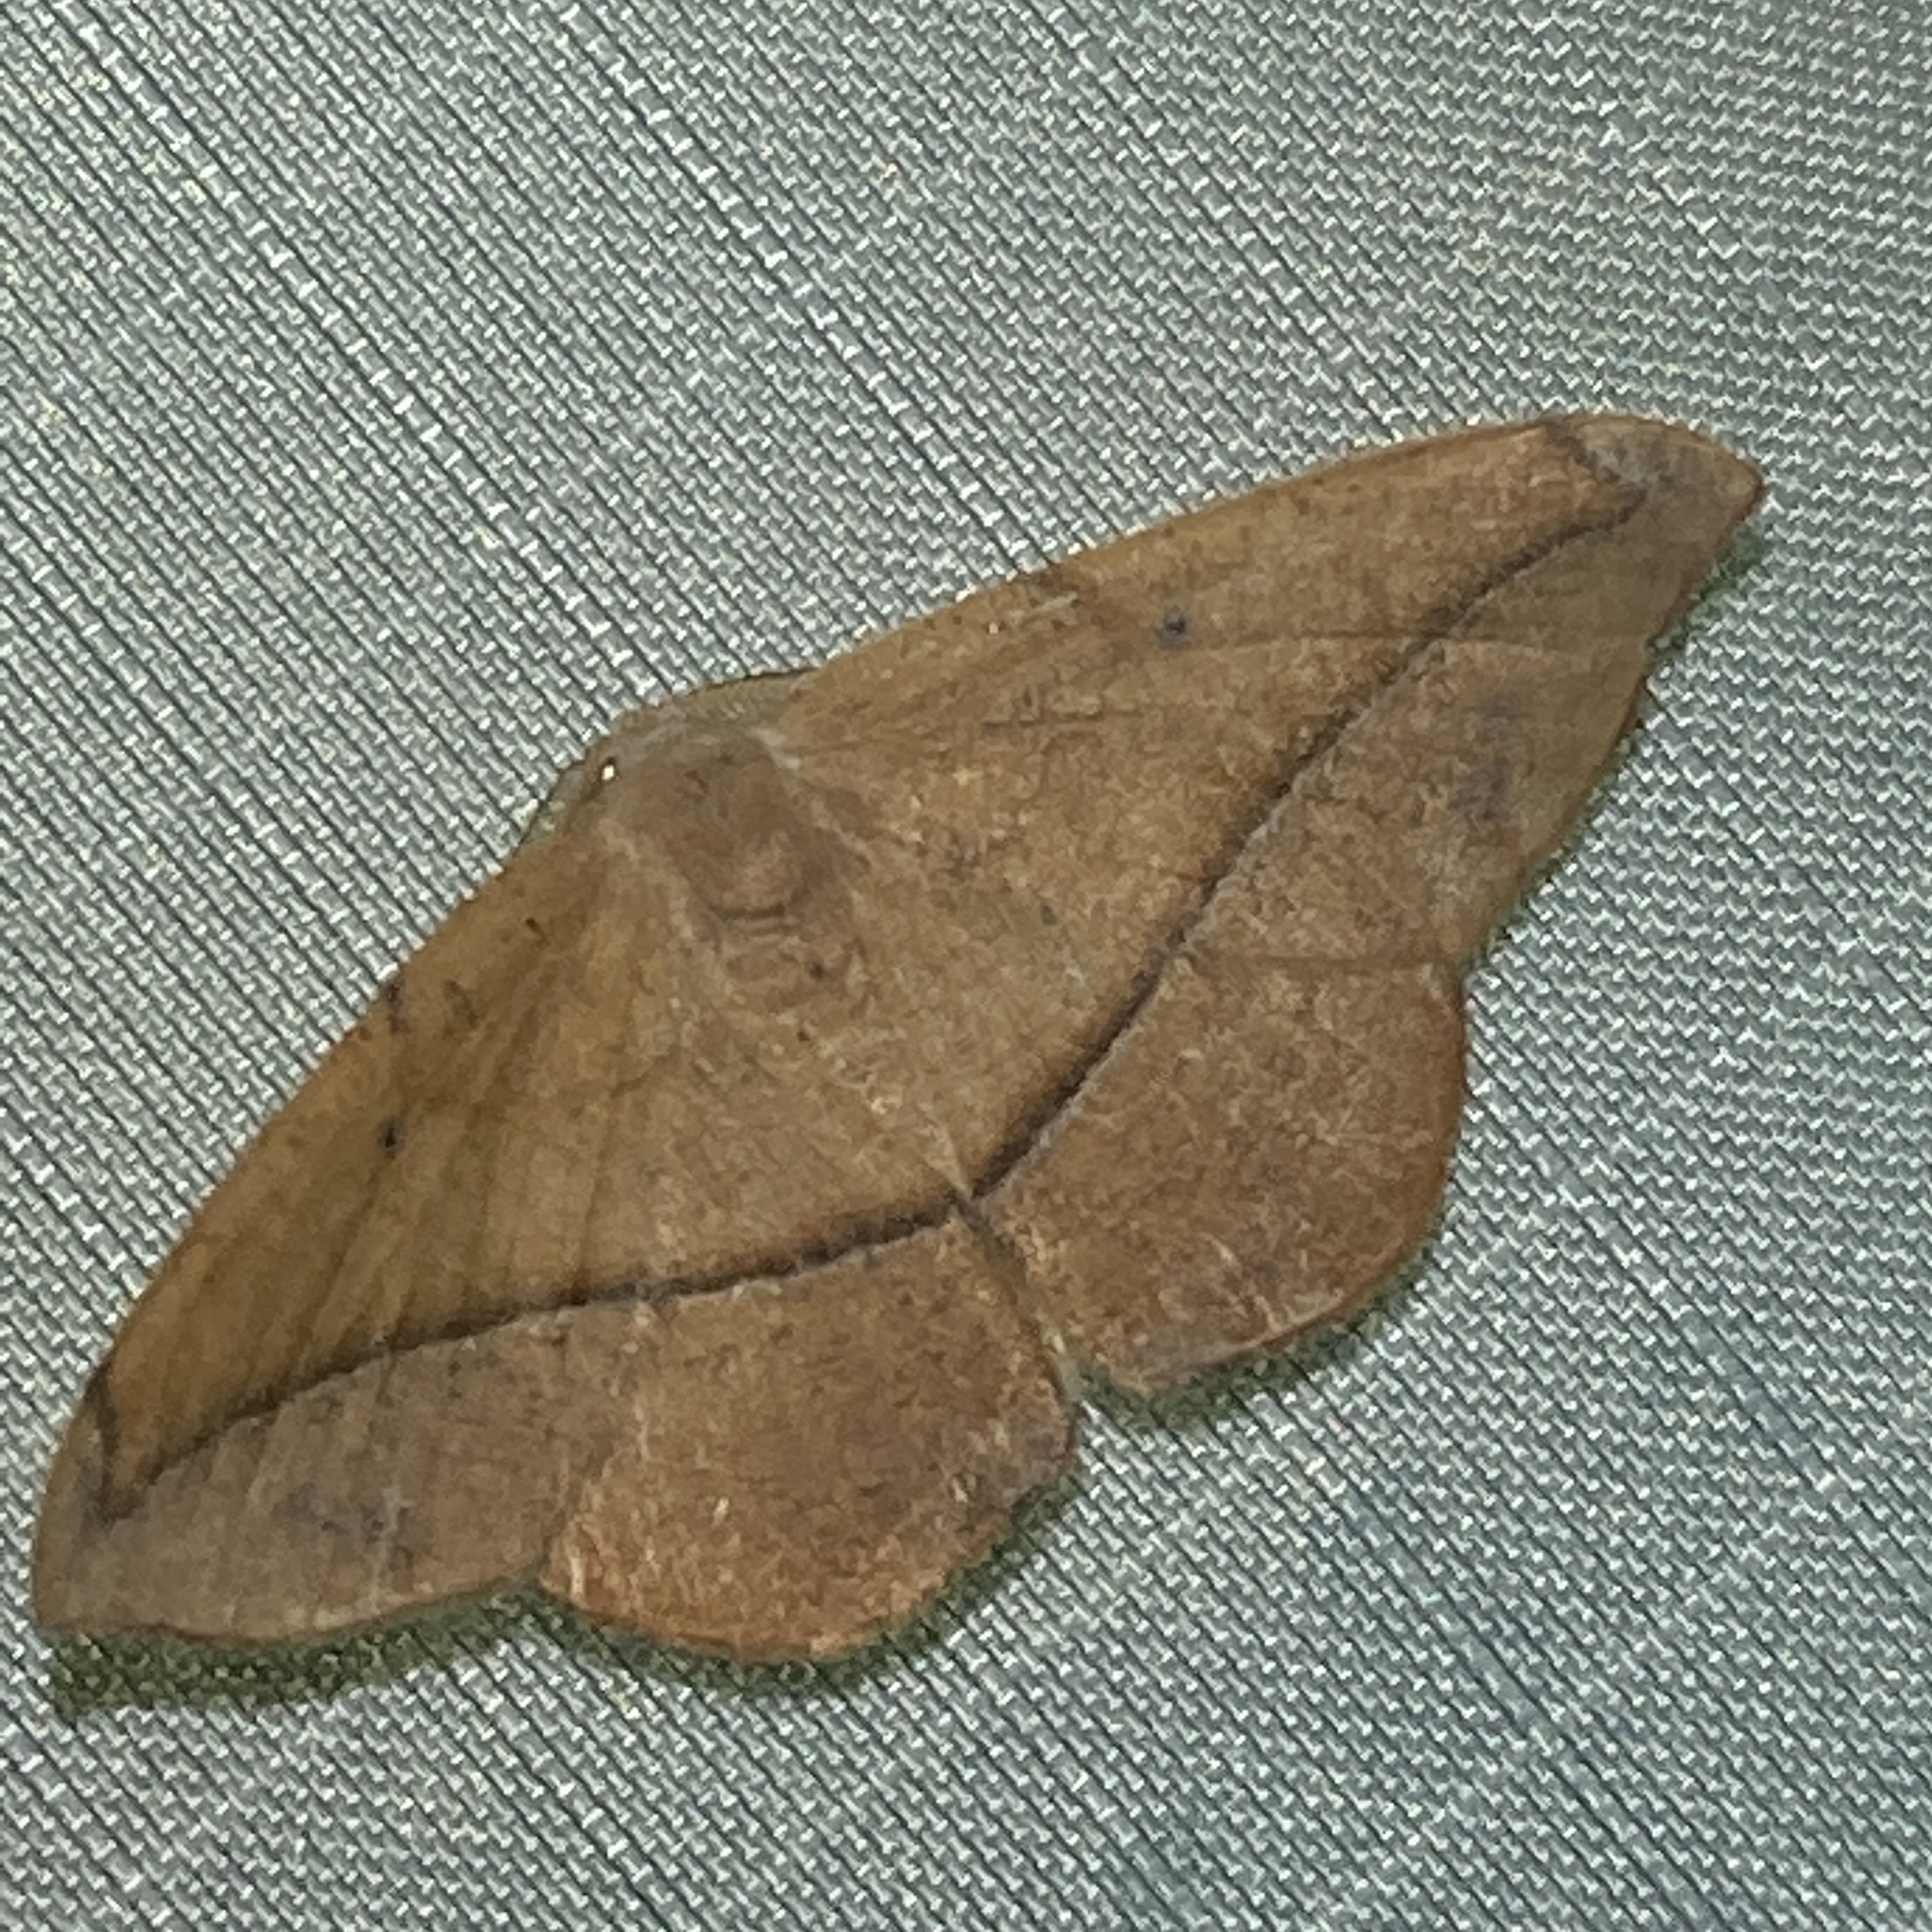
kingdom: Animalia
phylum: Arthropoda
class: Insecta
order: Lepidoptera
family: Geometridae
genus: Patalene
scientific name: Patalene olyzonaria
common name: Juniper geometer moth
